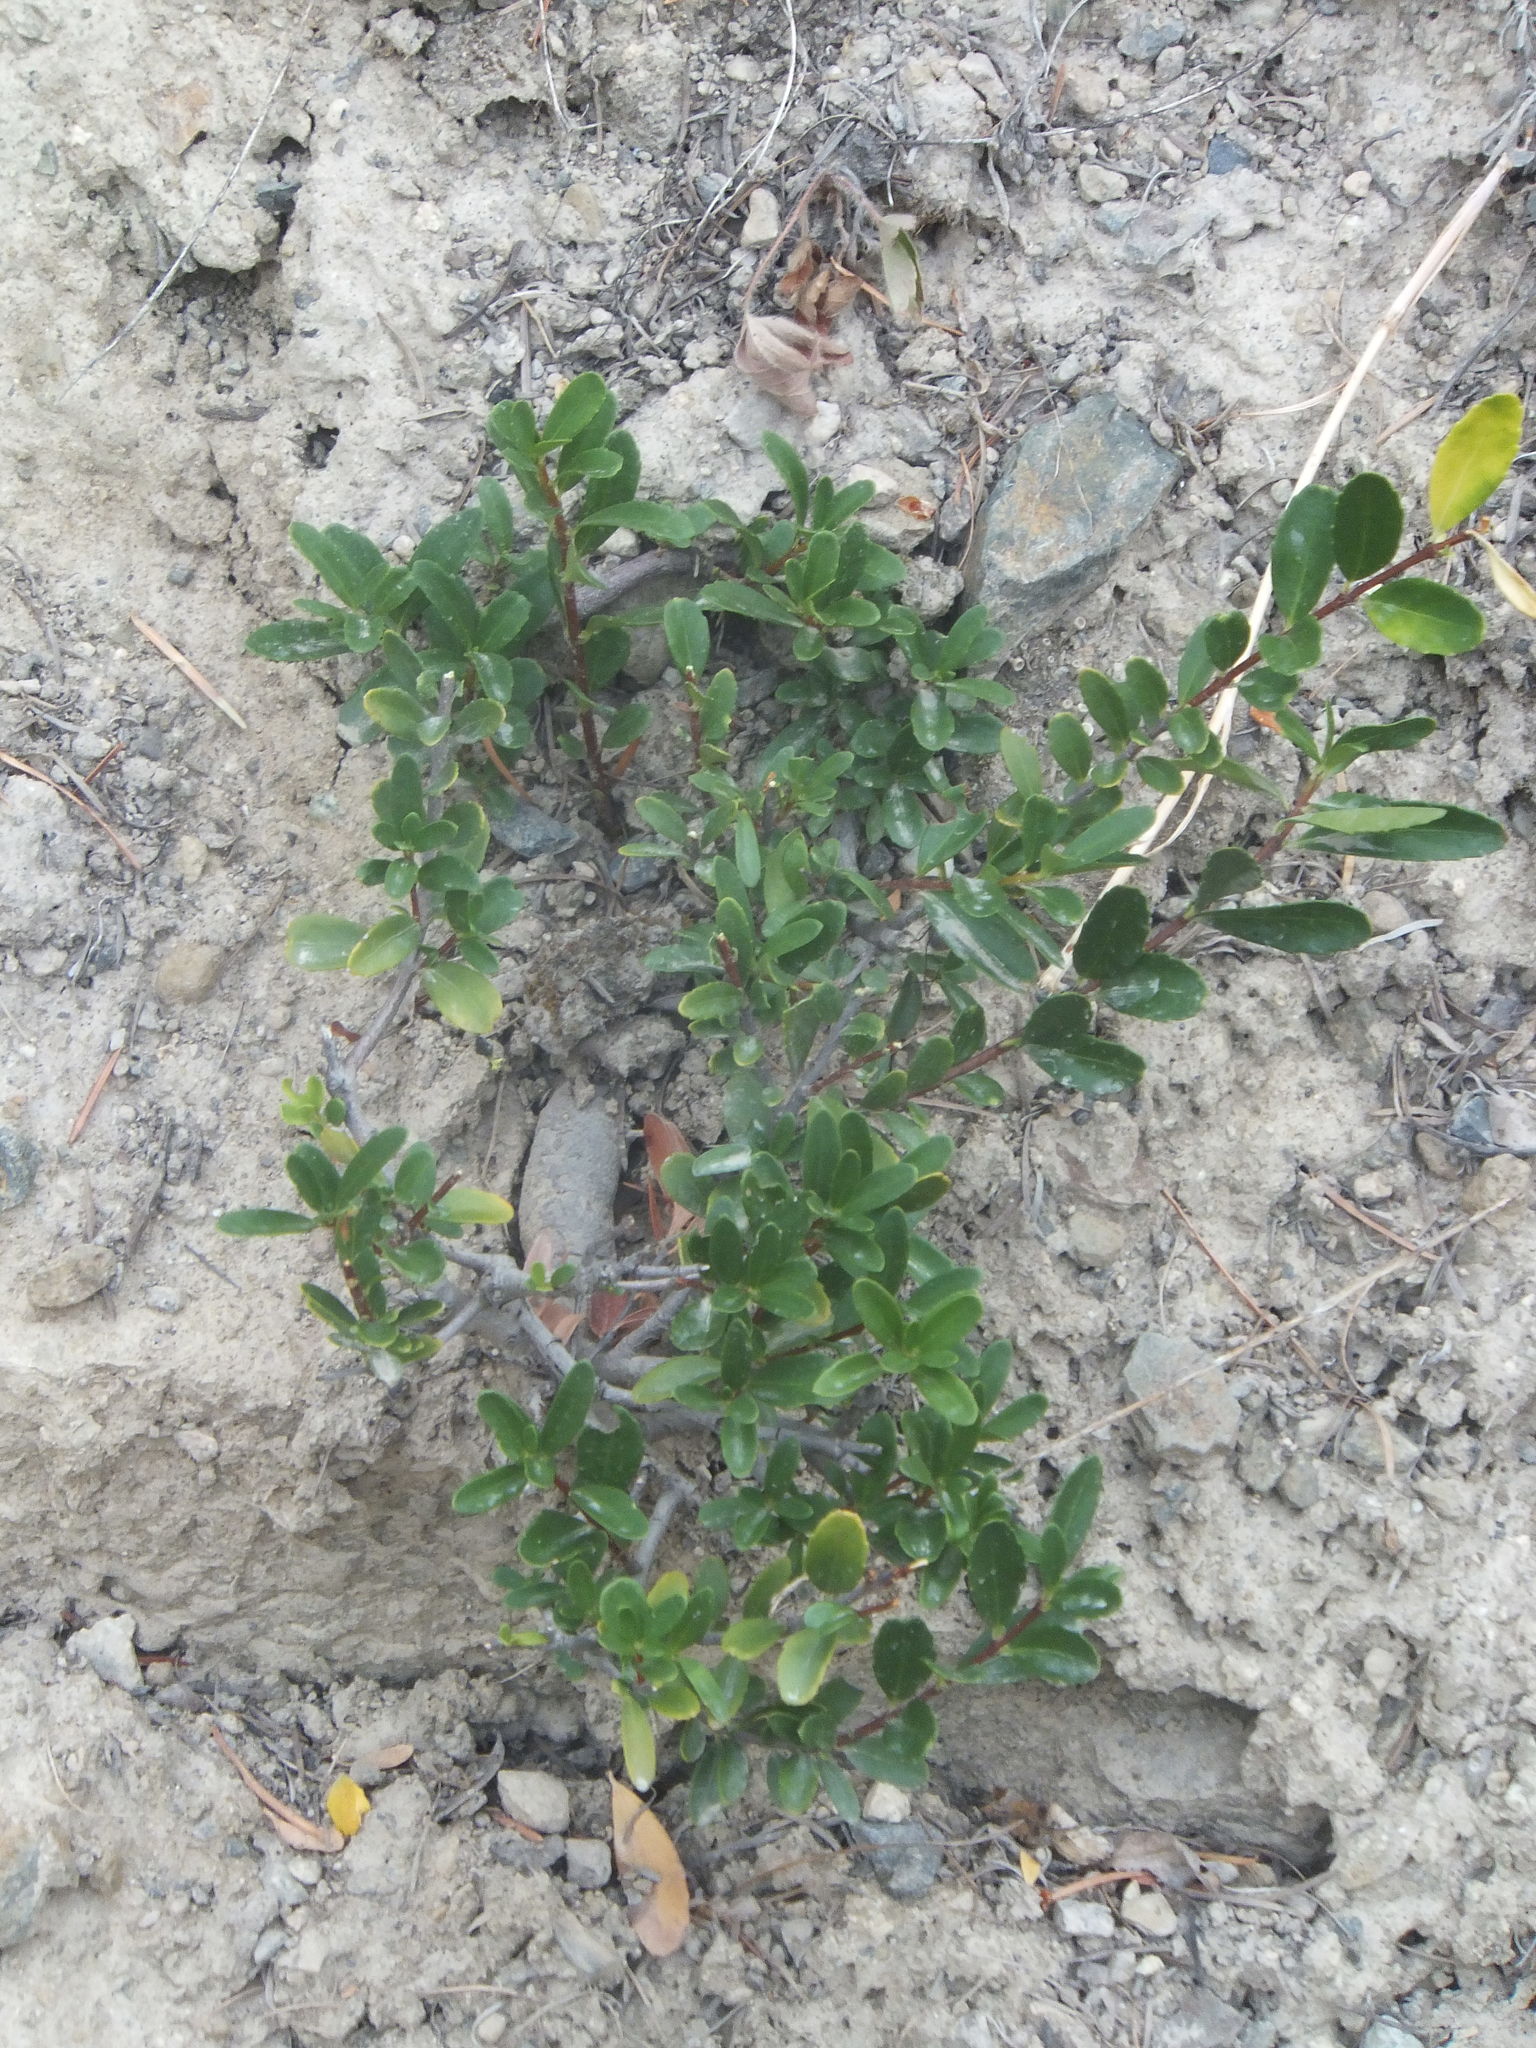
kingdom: Plantae
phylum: Tracheophyta
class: Magnoliopsida
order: Celastrales
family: Celastraceae
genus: Paxistima
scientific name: Paxistima myrsinites
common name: Mountain-lover
